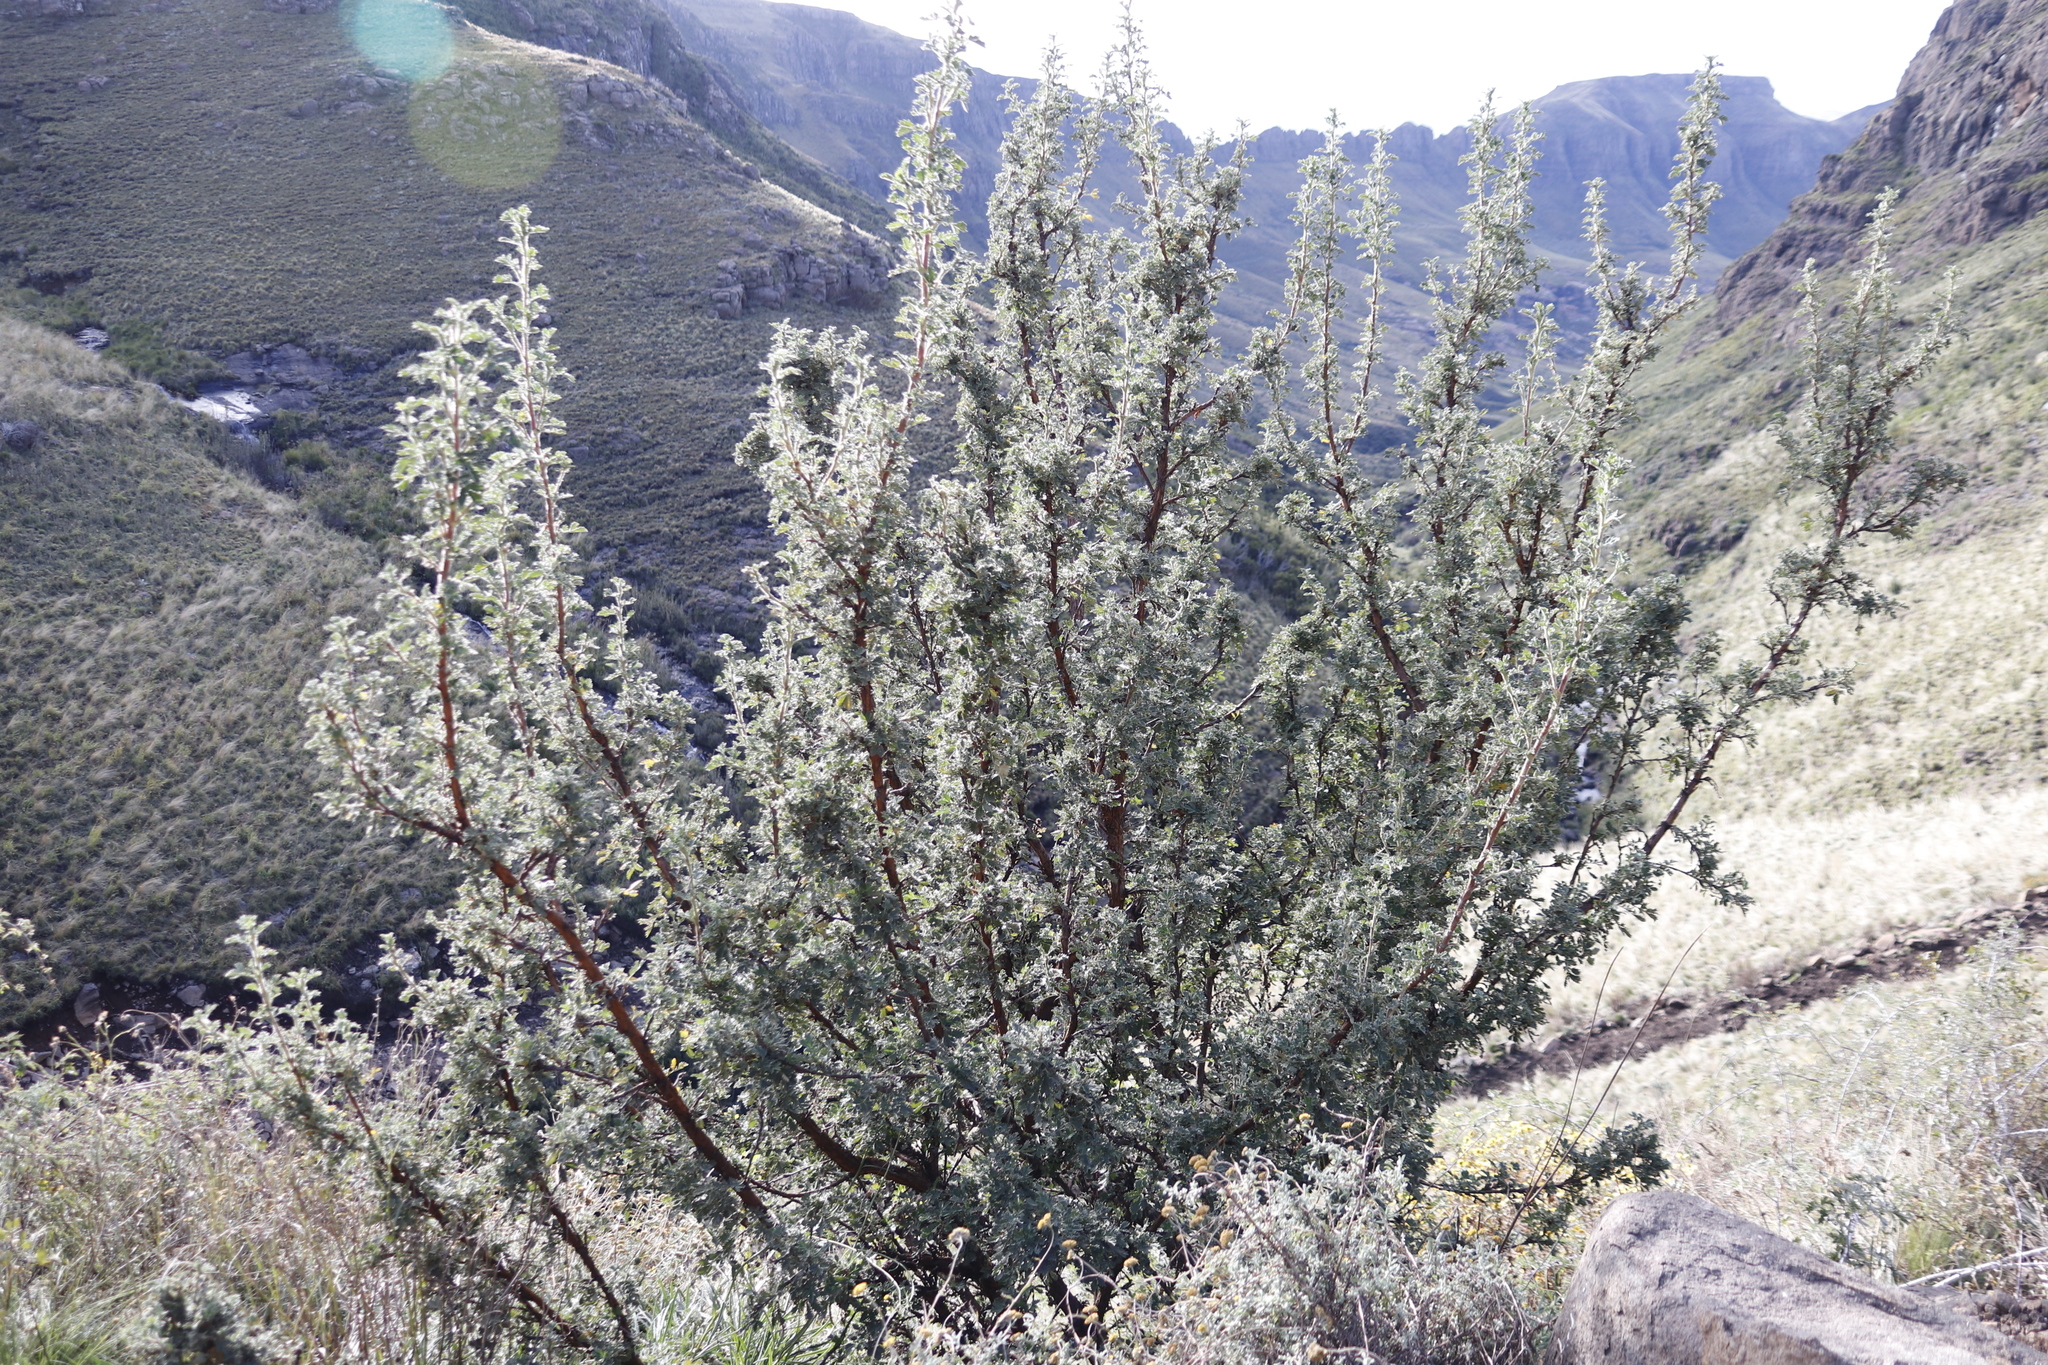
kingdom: Plantae
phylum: Tracheophyta
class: Magnoliopsida
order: Rosales
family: Rosaceae
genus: Leucosidea
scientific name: Leucosidea sericea
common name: Oldwood
